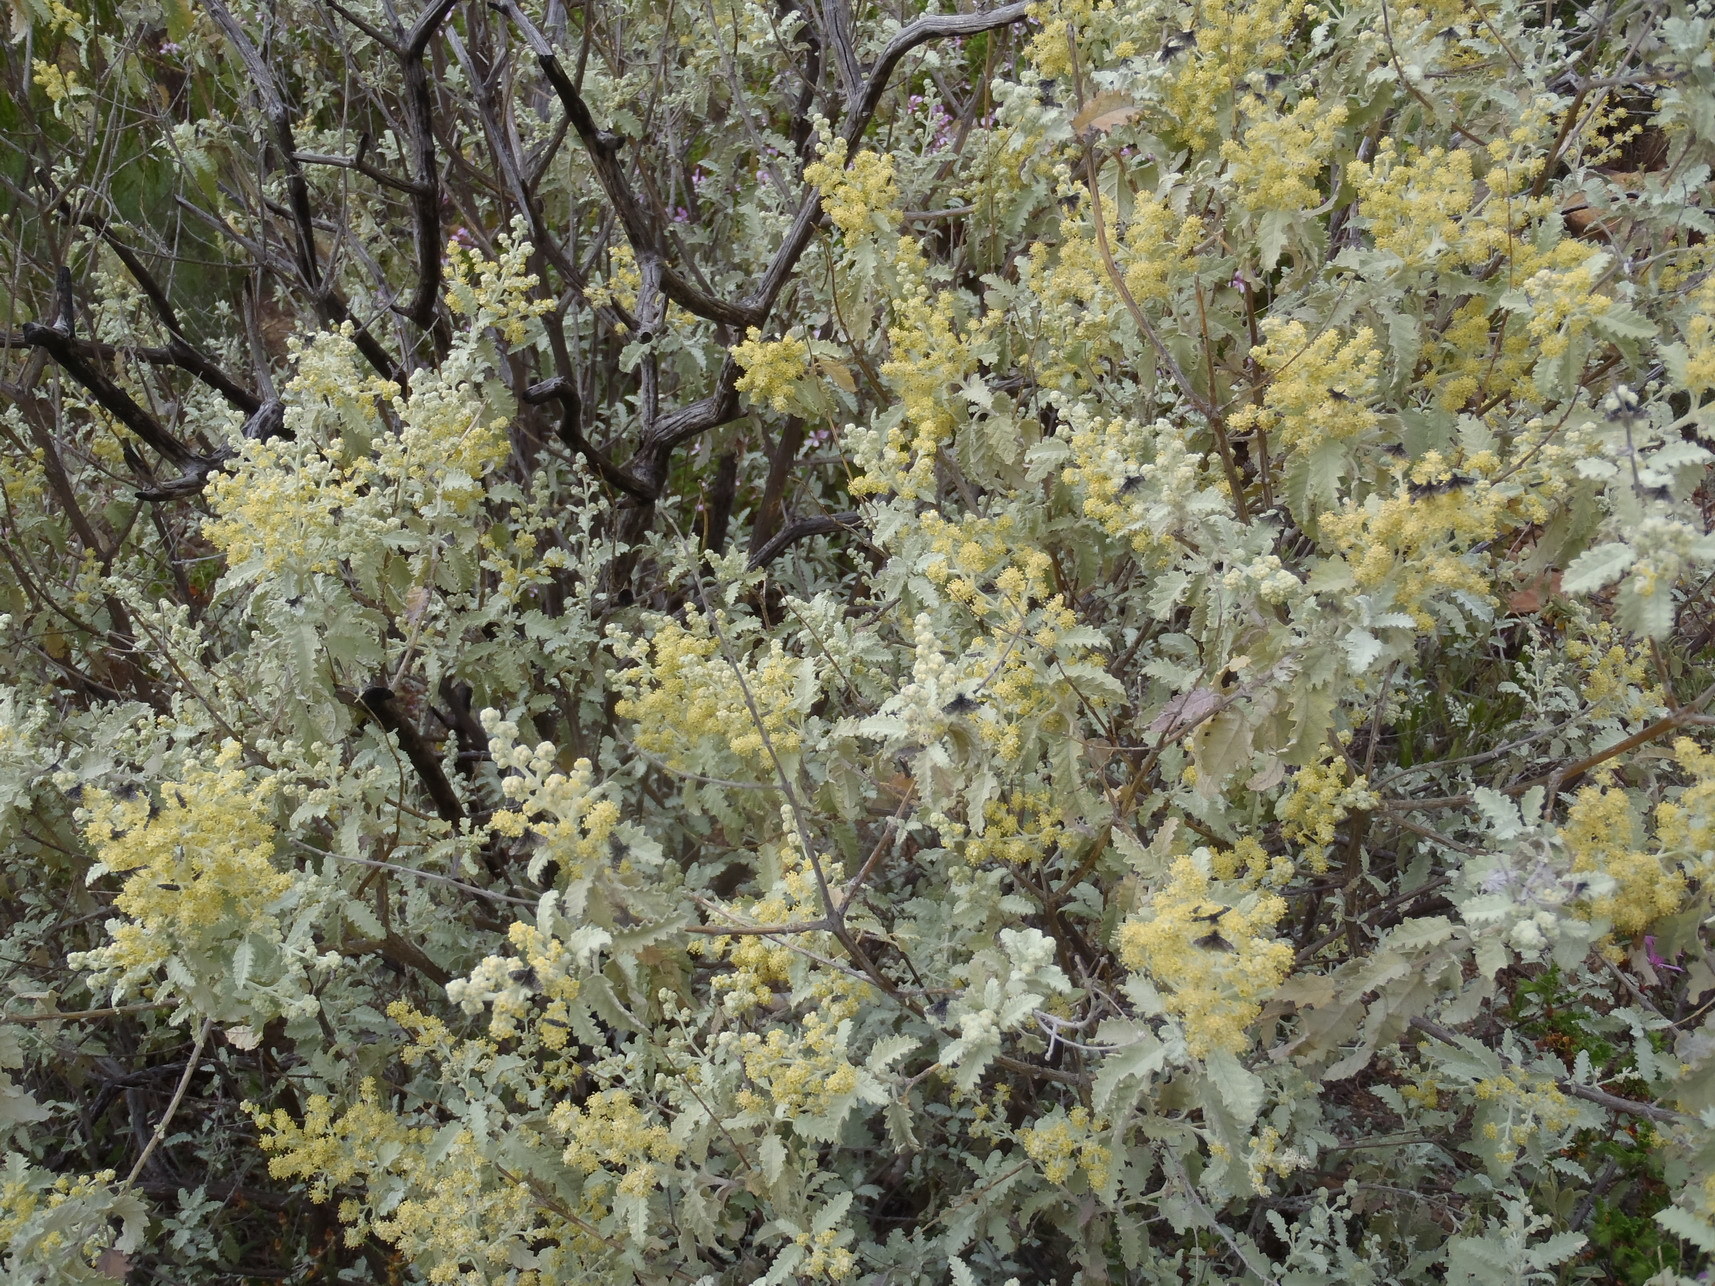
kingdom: Plantae
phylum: Tracheophyta
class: Magnoliopsida
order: Lamiales
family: Scrophulariaceae
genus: Buddleja
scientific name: Buddleja glomerata
